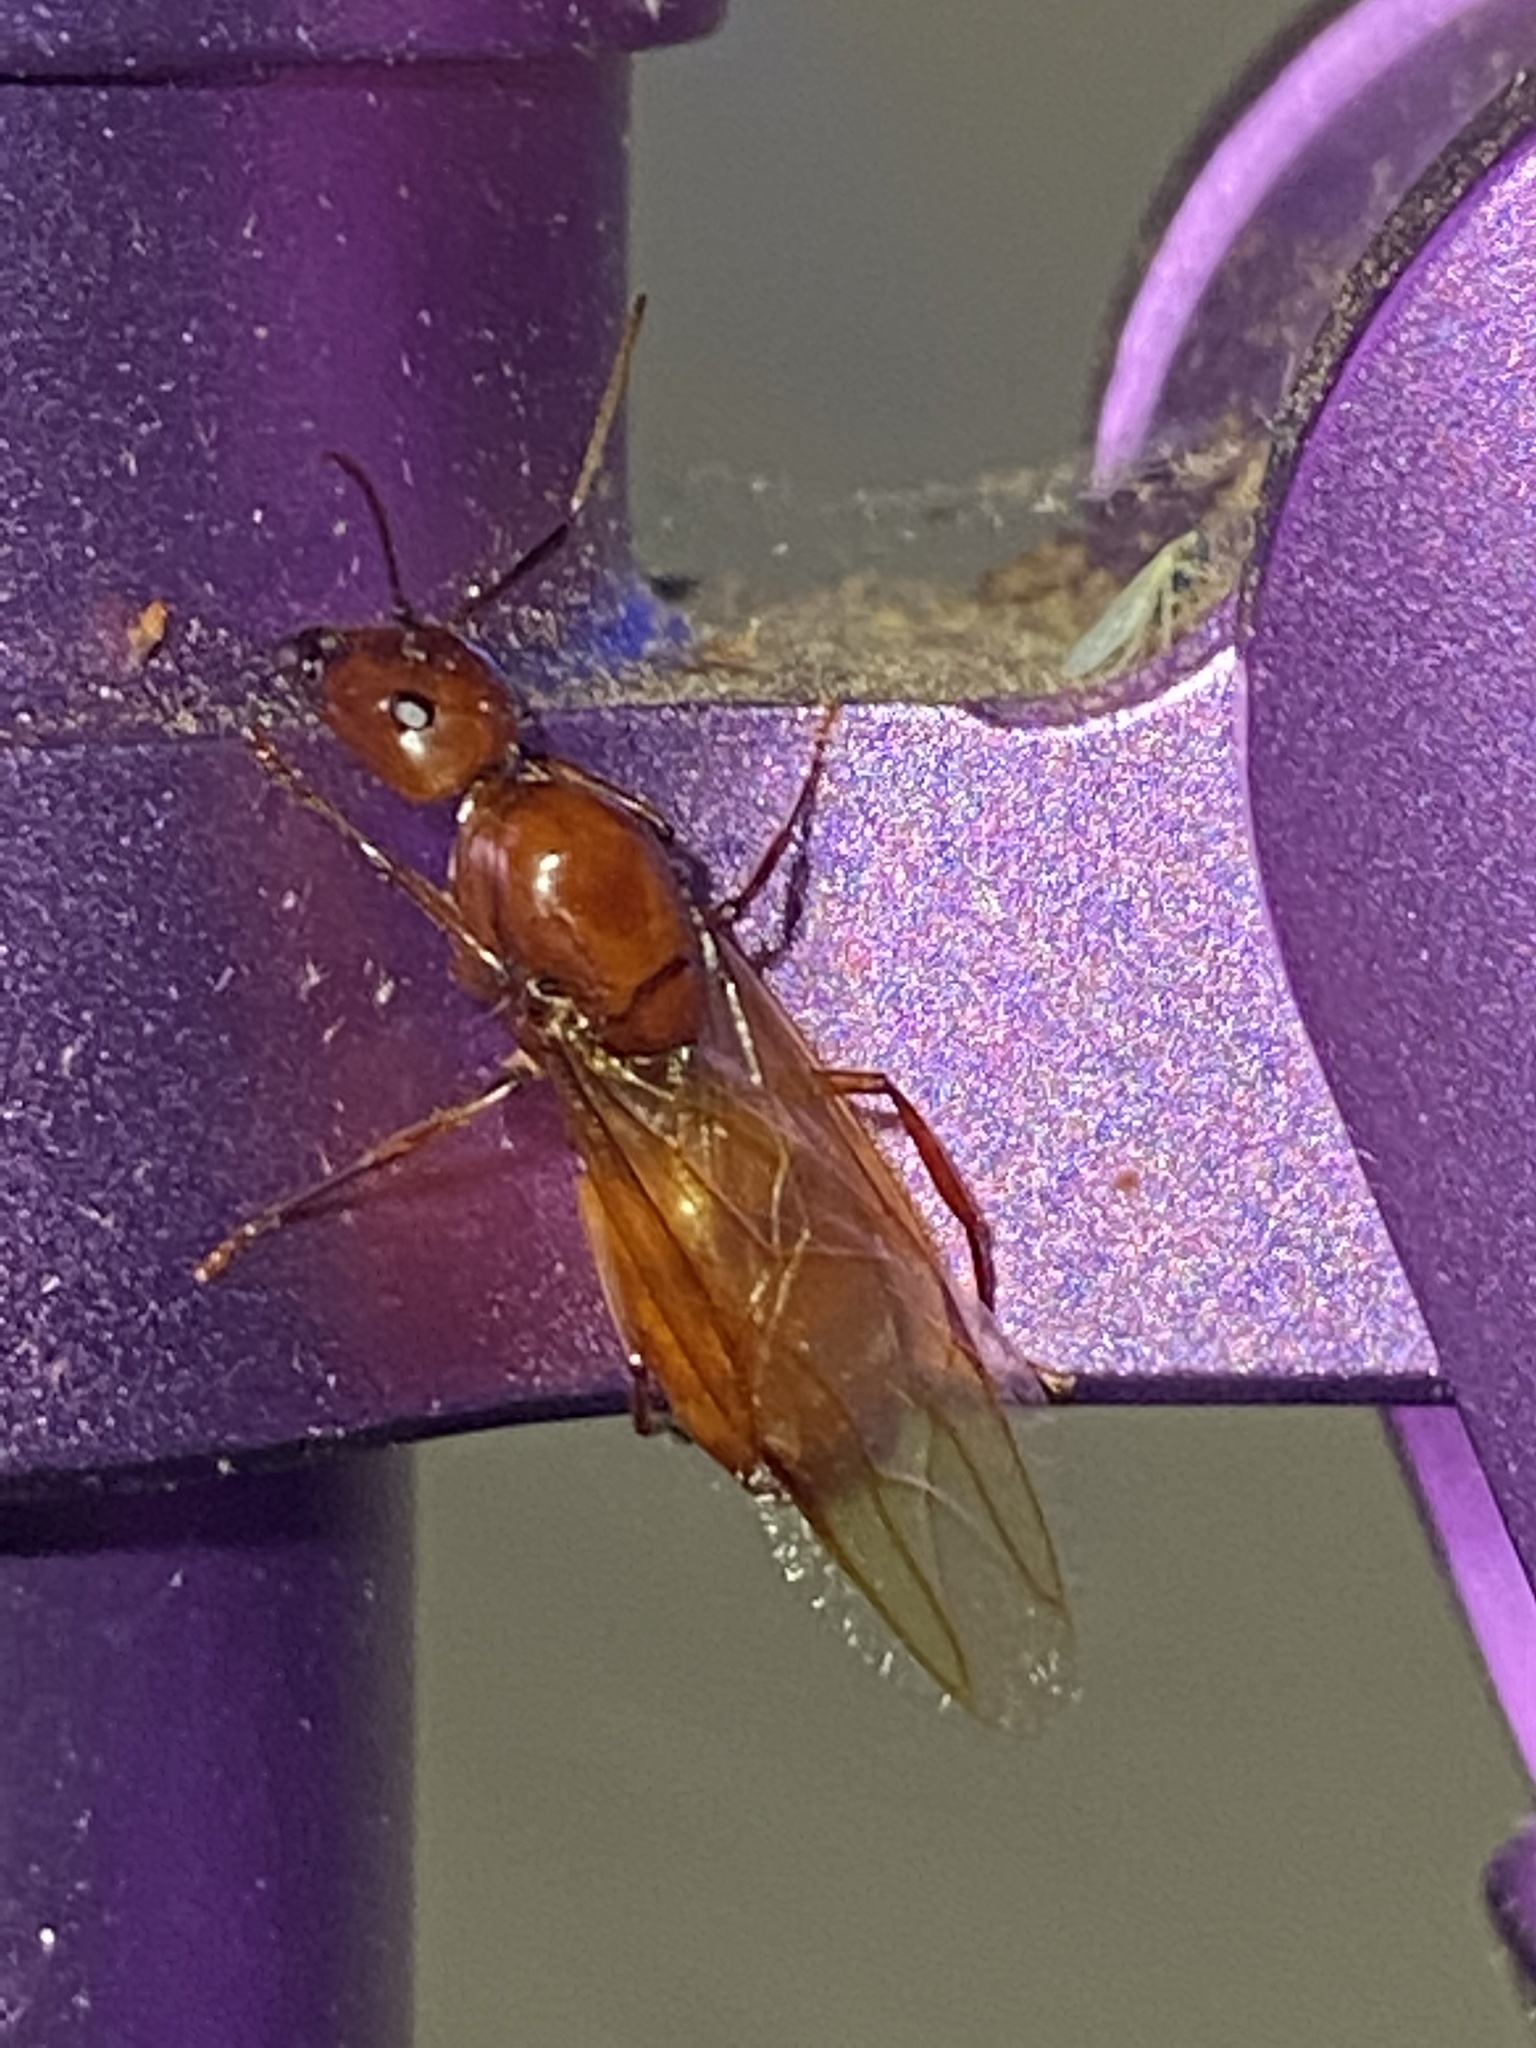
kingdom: Animalia
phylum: Arthropoda
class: Insecta
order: Hymenoptera
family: Formicidae
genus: Camponotus
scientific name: Camponotus castaneus
